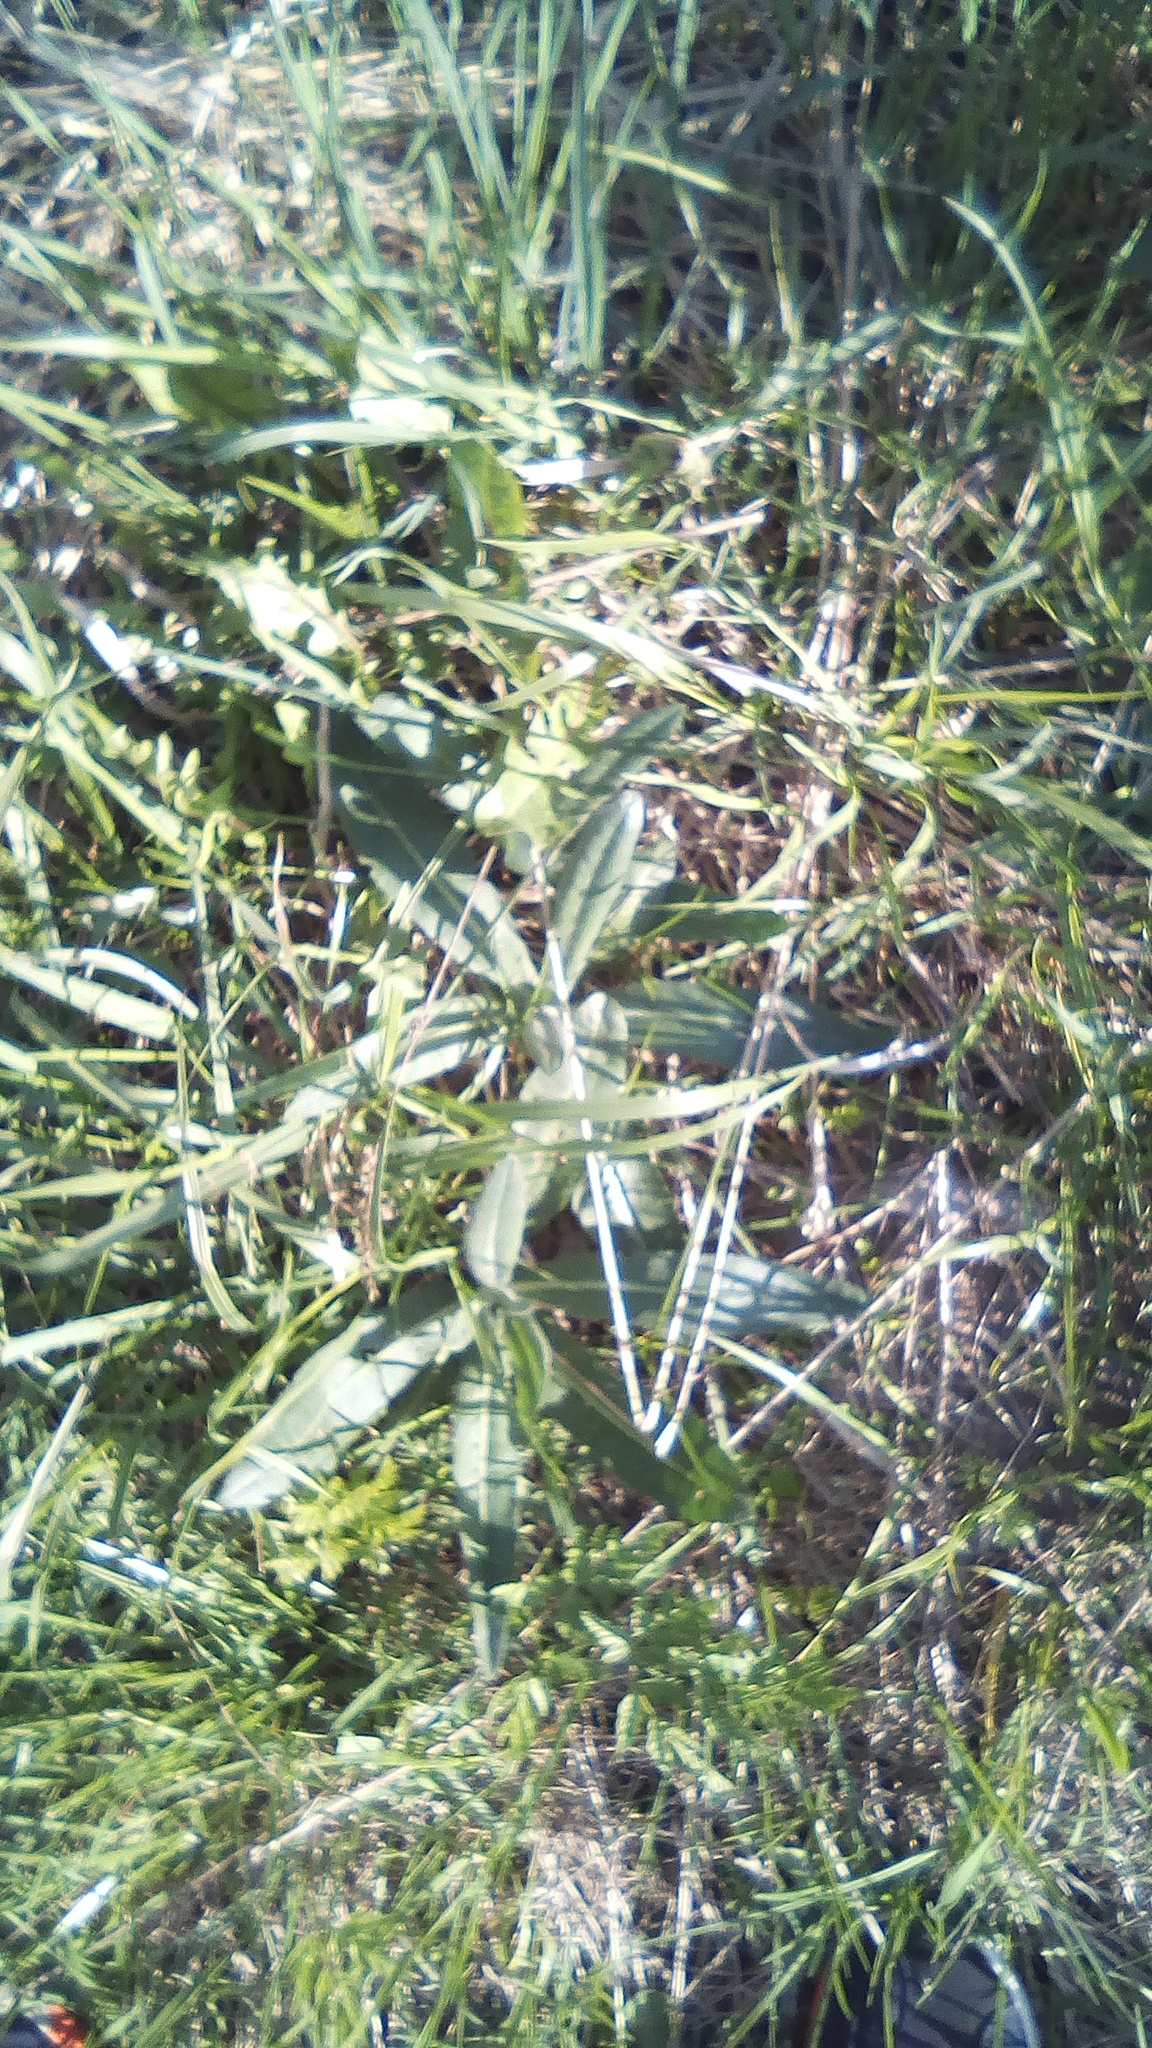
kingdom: Plantae
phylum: Tracheophyta
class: Magnoliopsida
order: Asterales
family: Asteraceae
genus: Cirsium
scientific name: Cirsium arvense
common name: Creeping thistle
